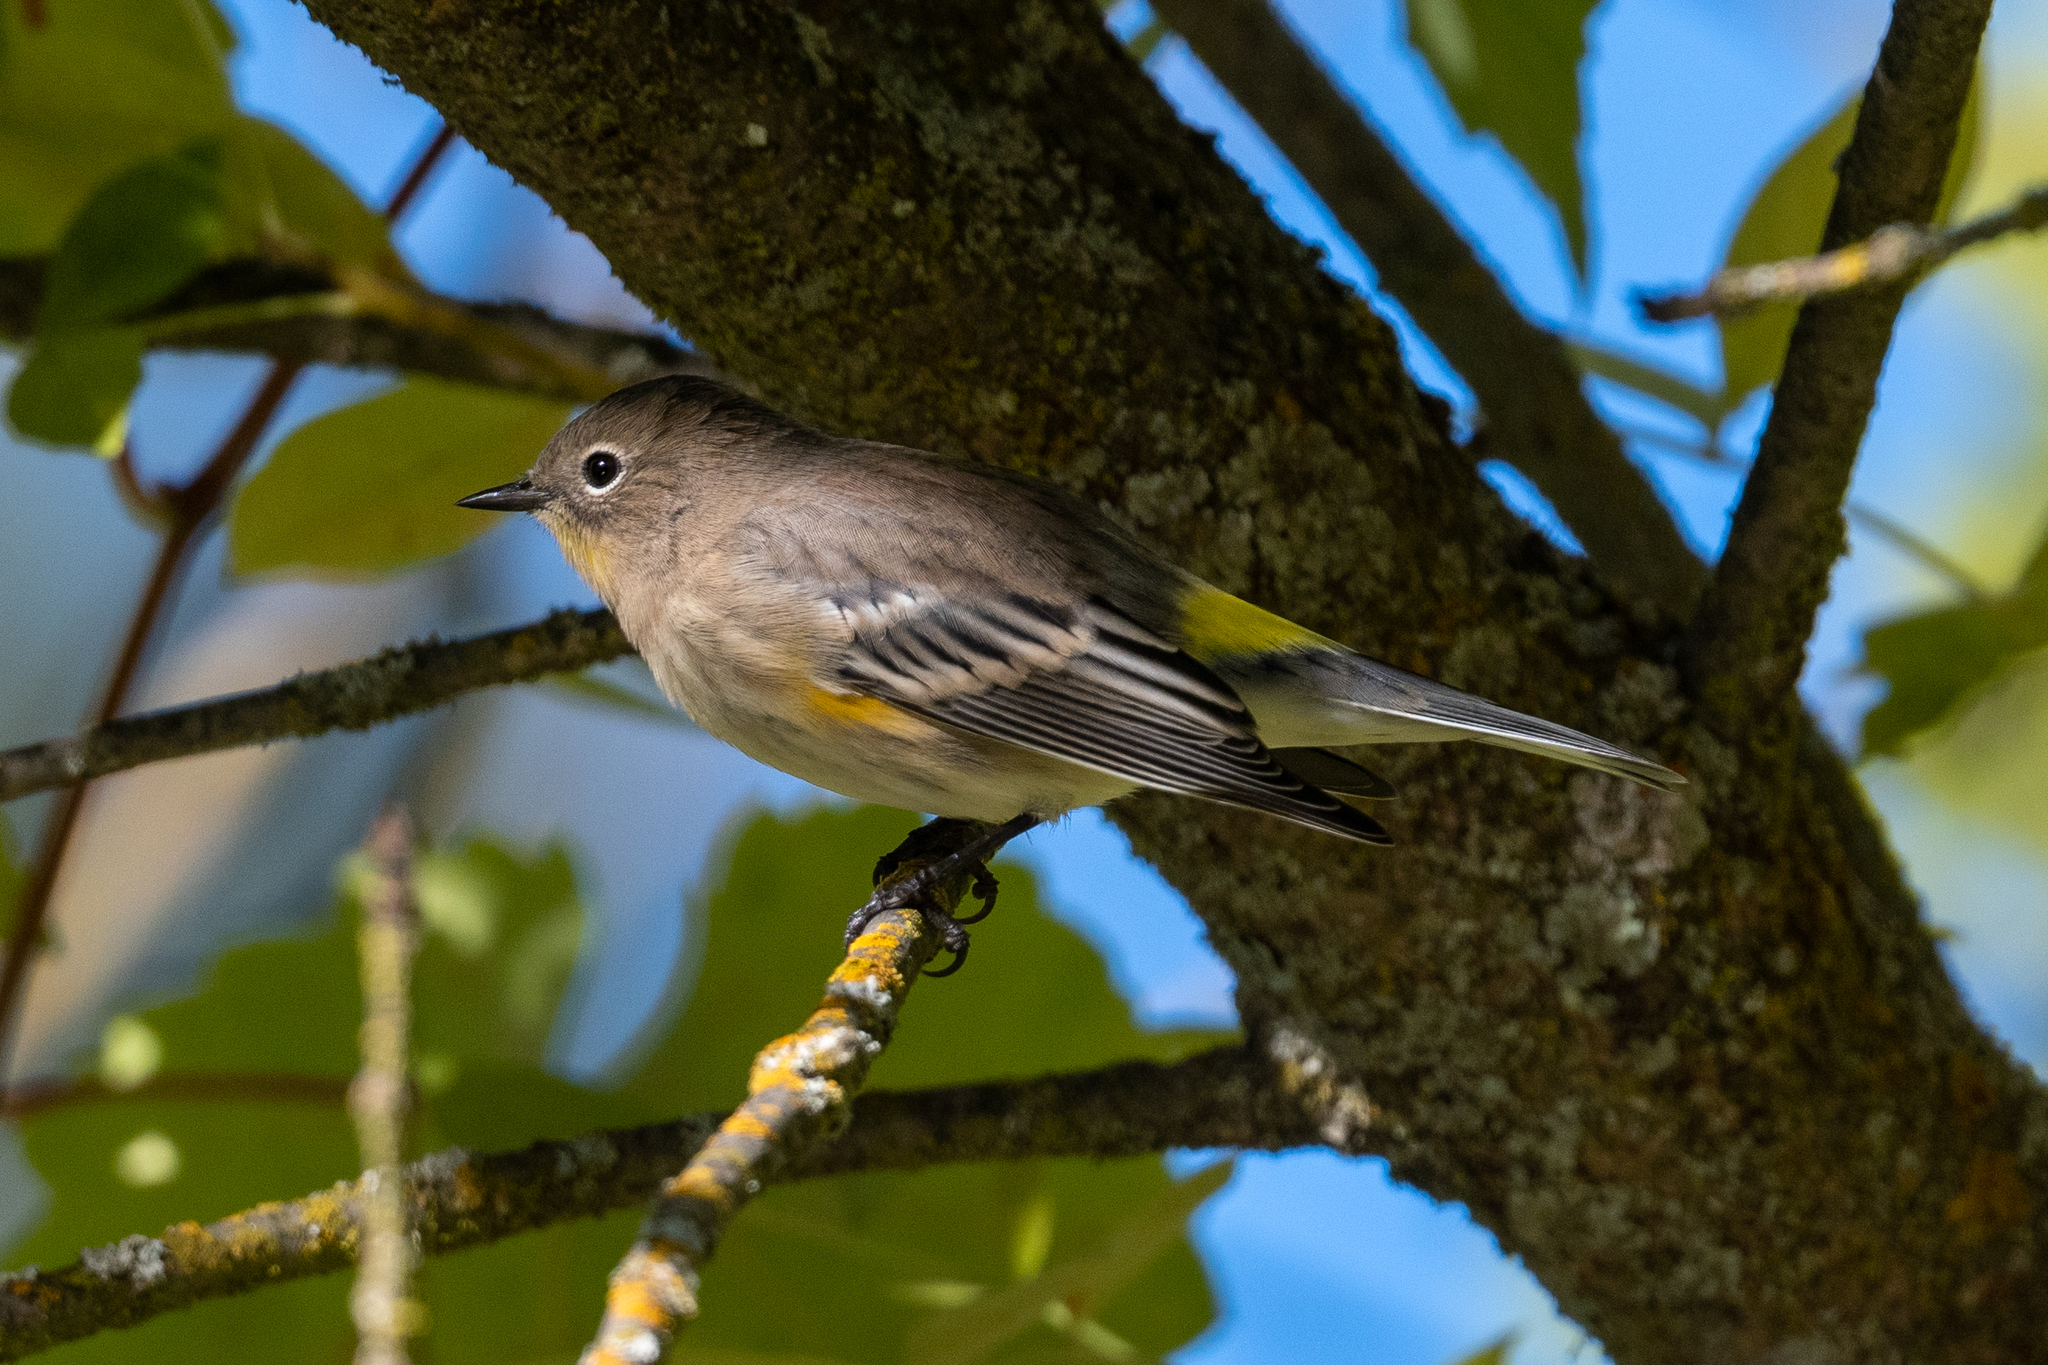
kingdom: Animalia
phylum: Chordata
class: Aves
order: Passeriformes
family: Parulidae
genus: Setophaga
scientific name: Setophaga coronata
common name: Myrtle warbler
